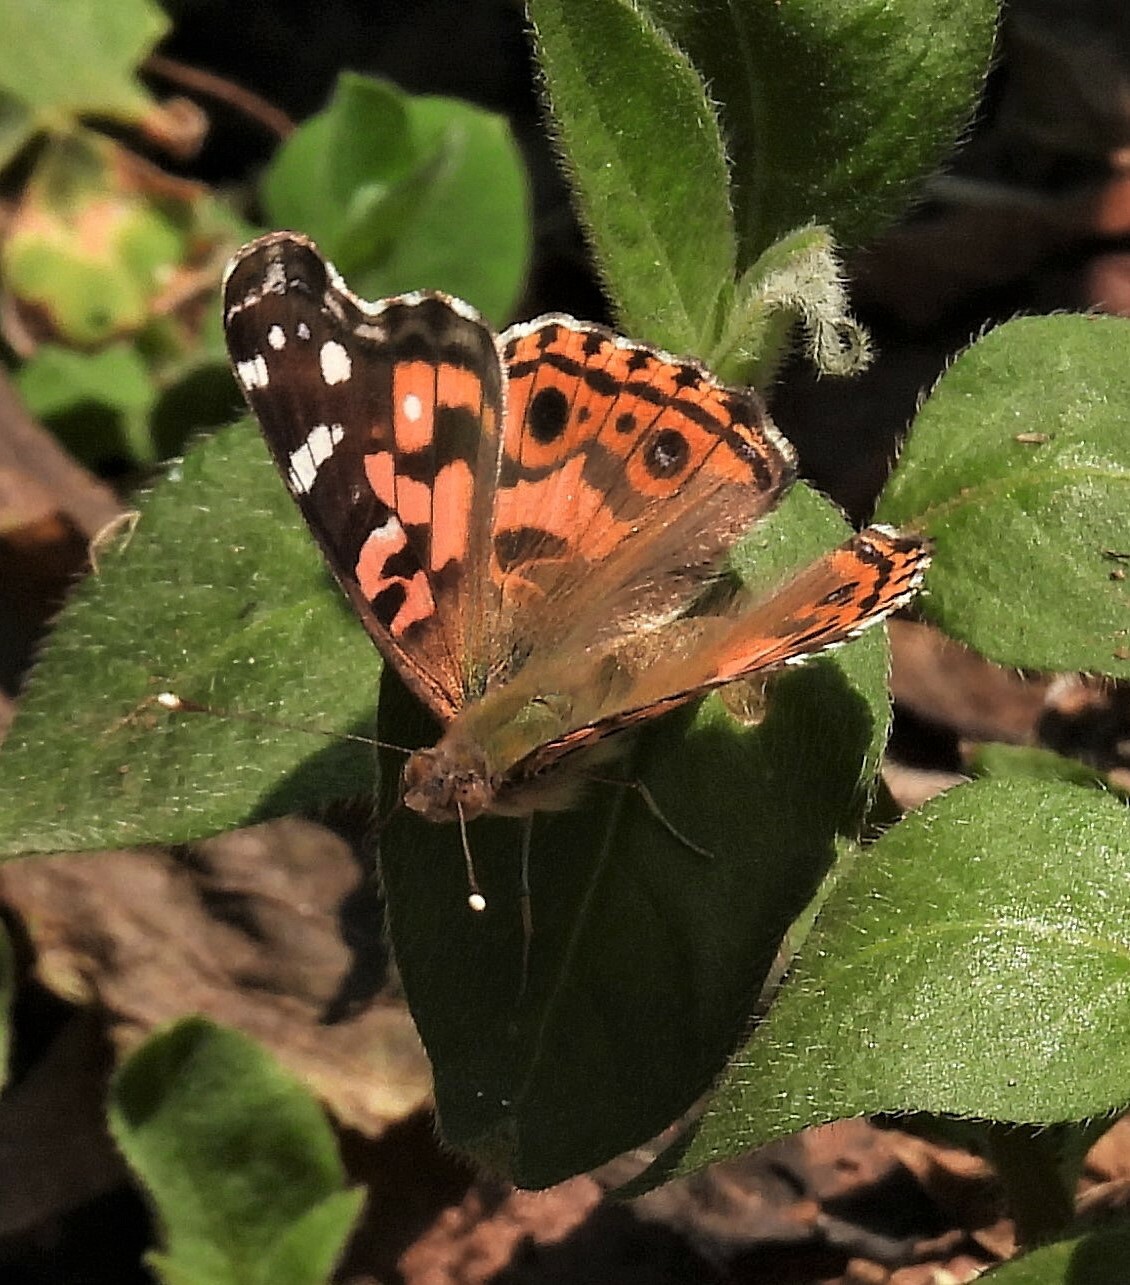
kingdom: Animalia
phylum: Arthropoda
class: Insecta
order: Lepidoptera
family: Nymphalidae
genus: Vanessa
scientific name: Vanessa braziliensis
